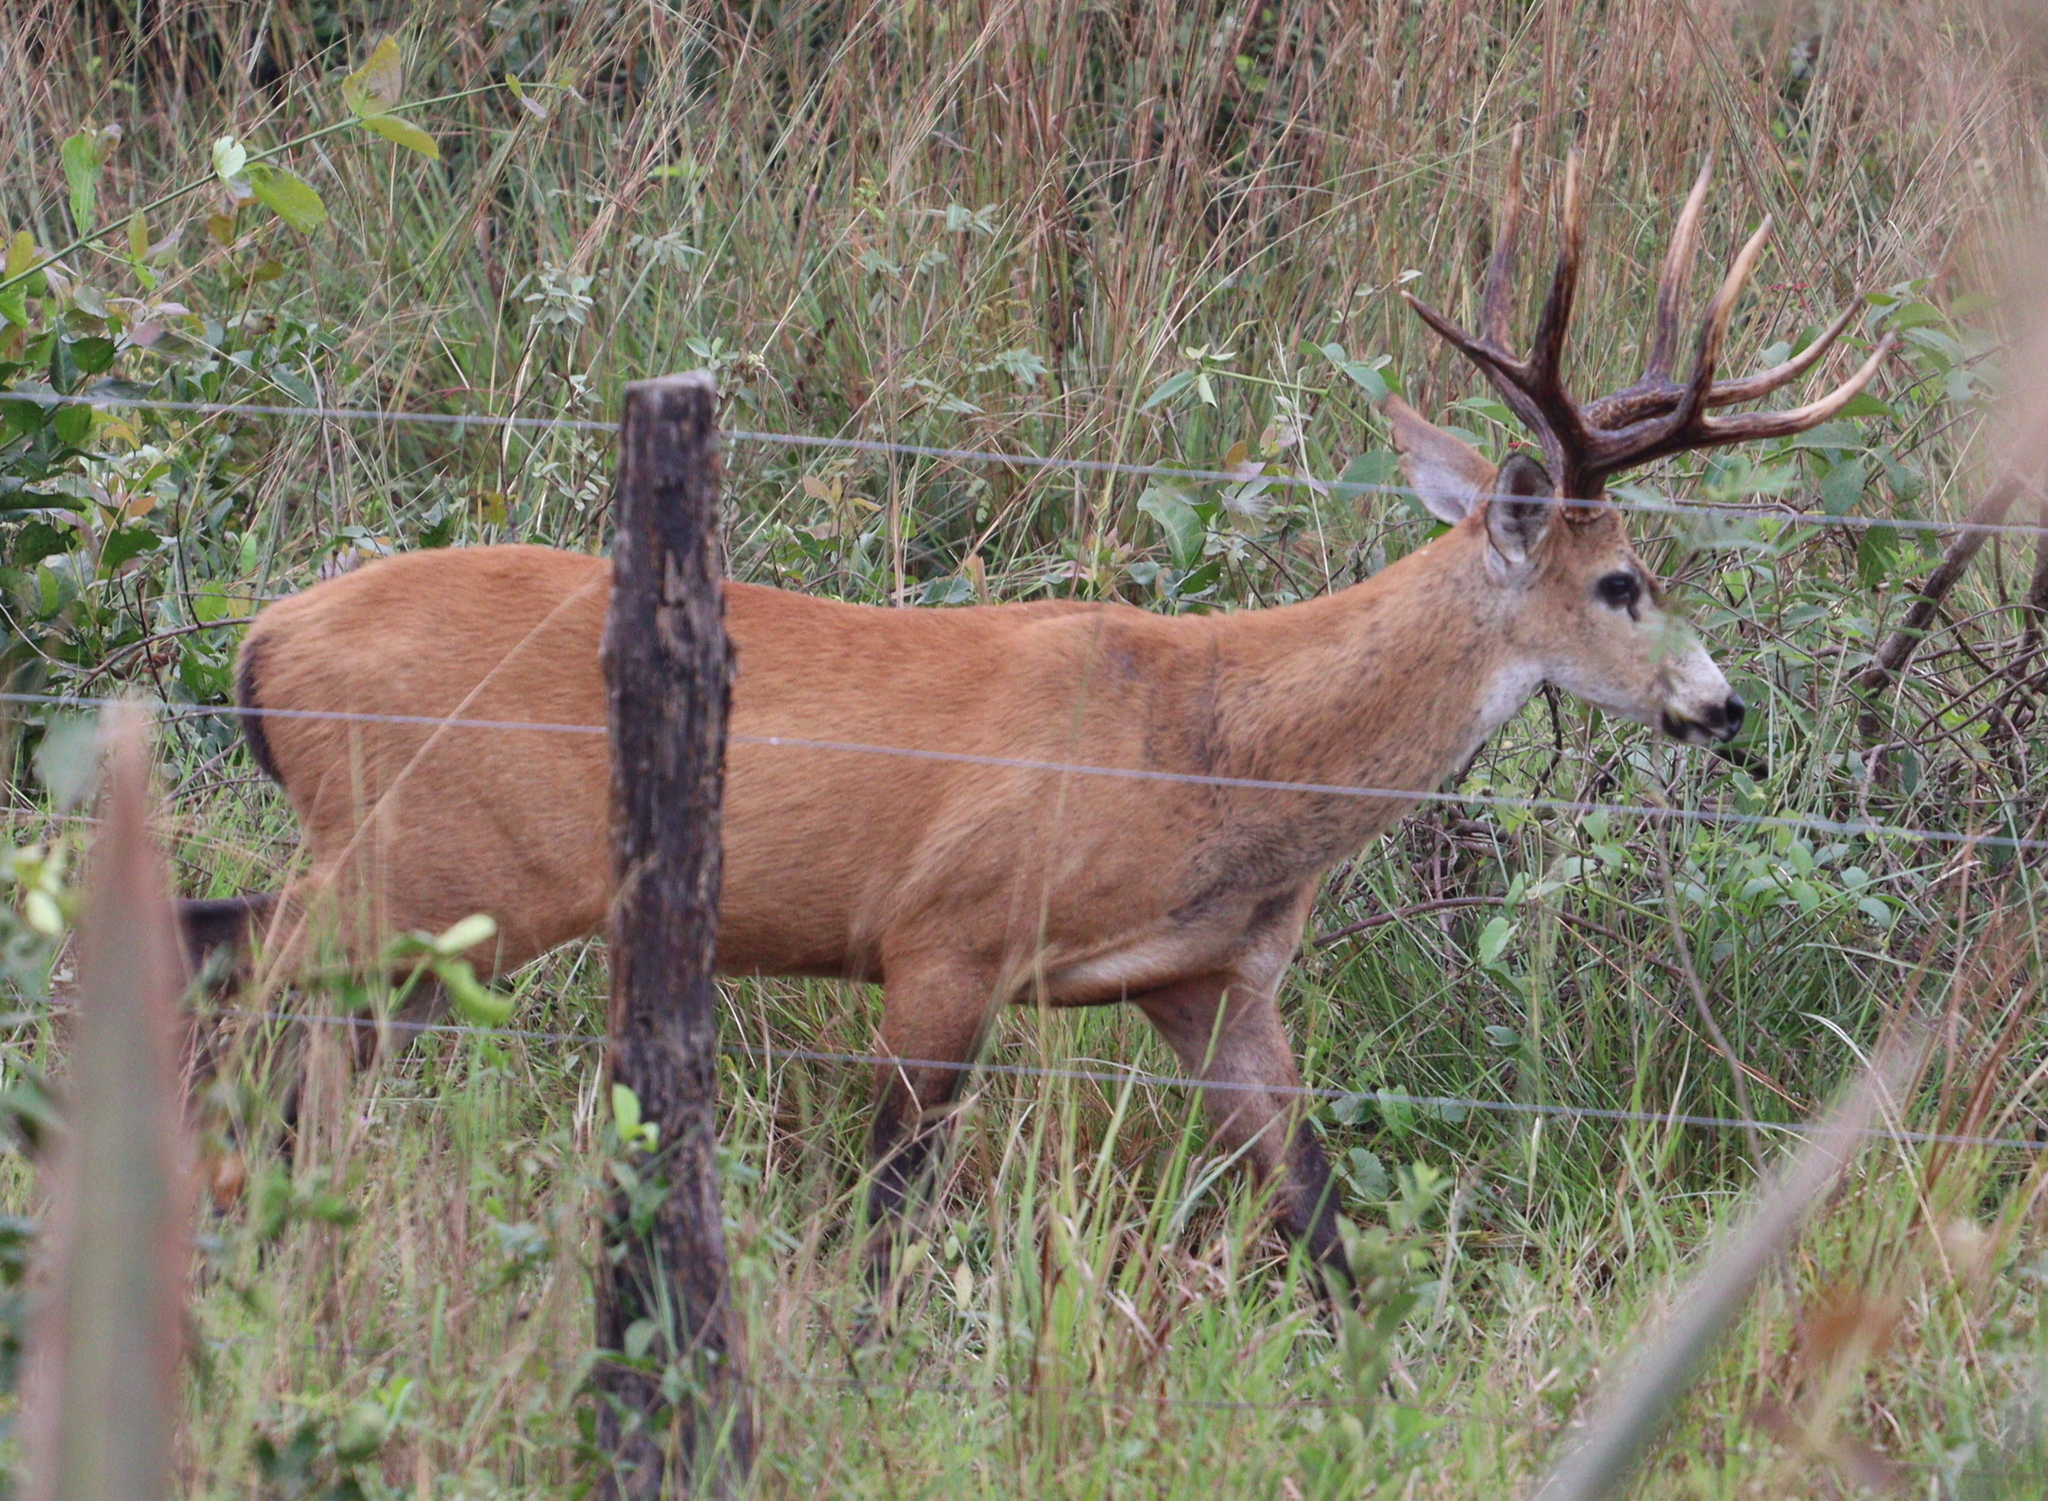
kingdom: Animalia
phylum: Chordata
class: Mammalia
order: Artiodactyla
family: Cervidae
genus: Blastocerus
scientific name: Blastocerus dichotomus
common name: Marsh deer
